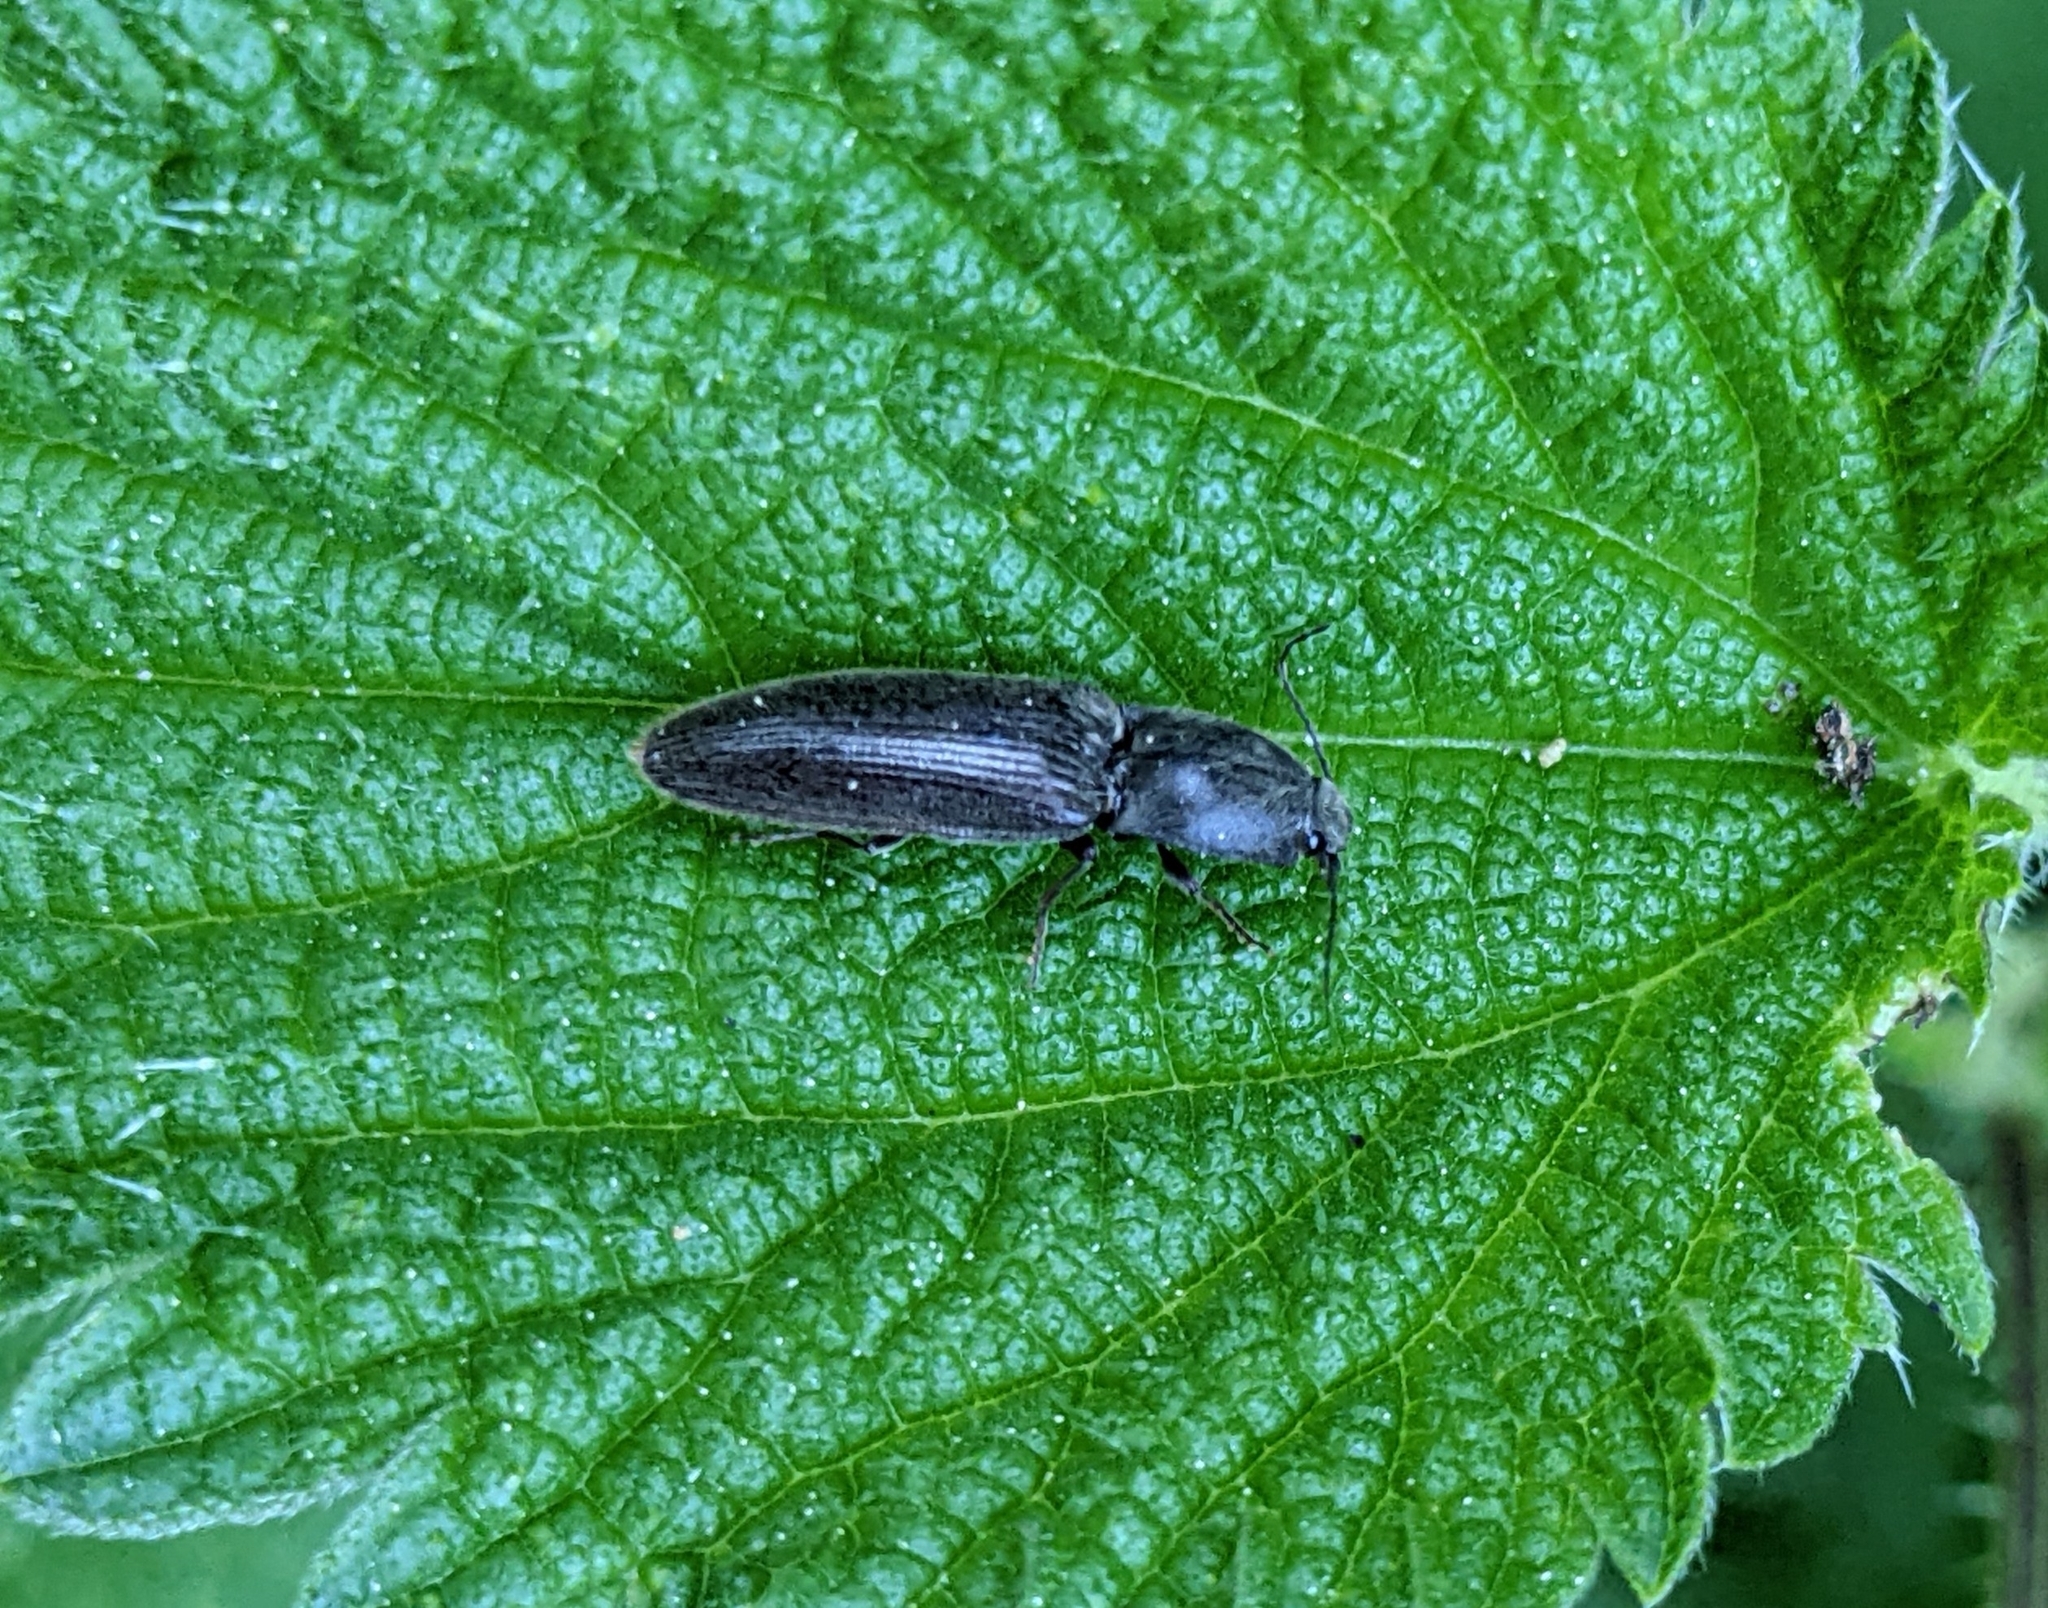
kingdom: Animalia
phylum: Arthropoda
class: Insecta
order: Coleoptera
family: Elateridae
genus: Athous
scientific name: Athous haemorrhoidalis
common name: Red-brown click beetle
